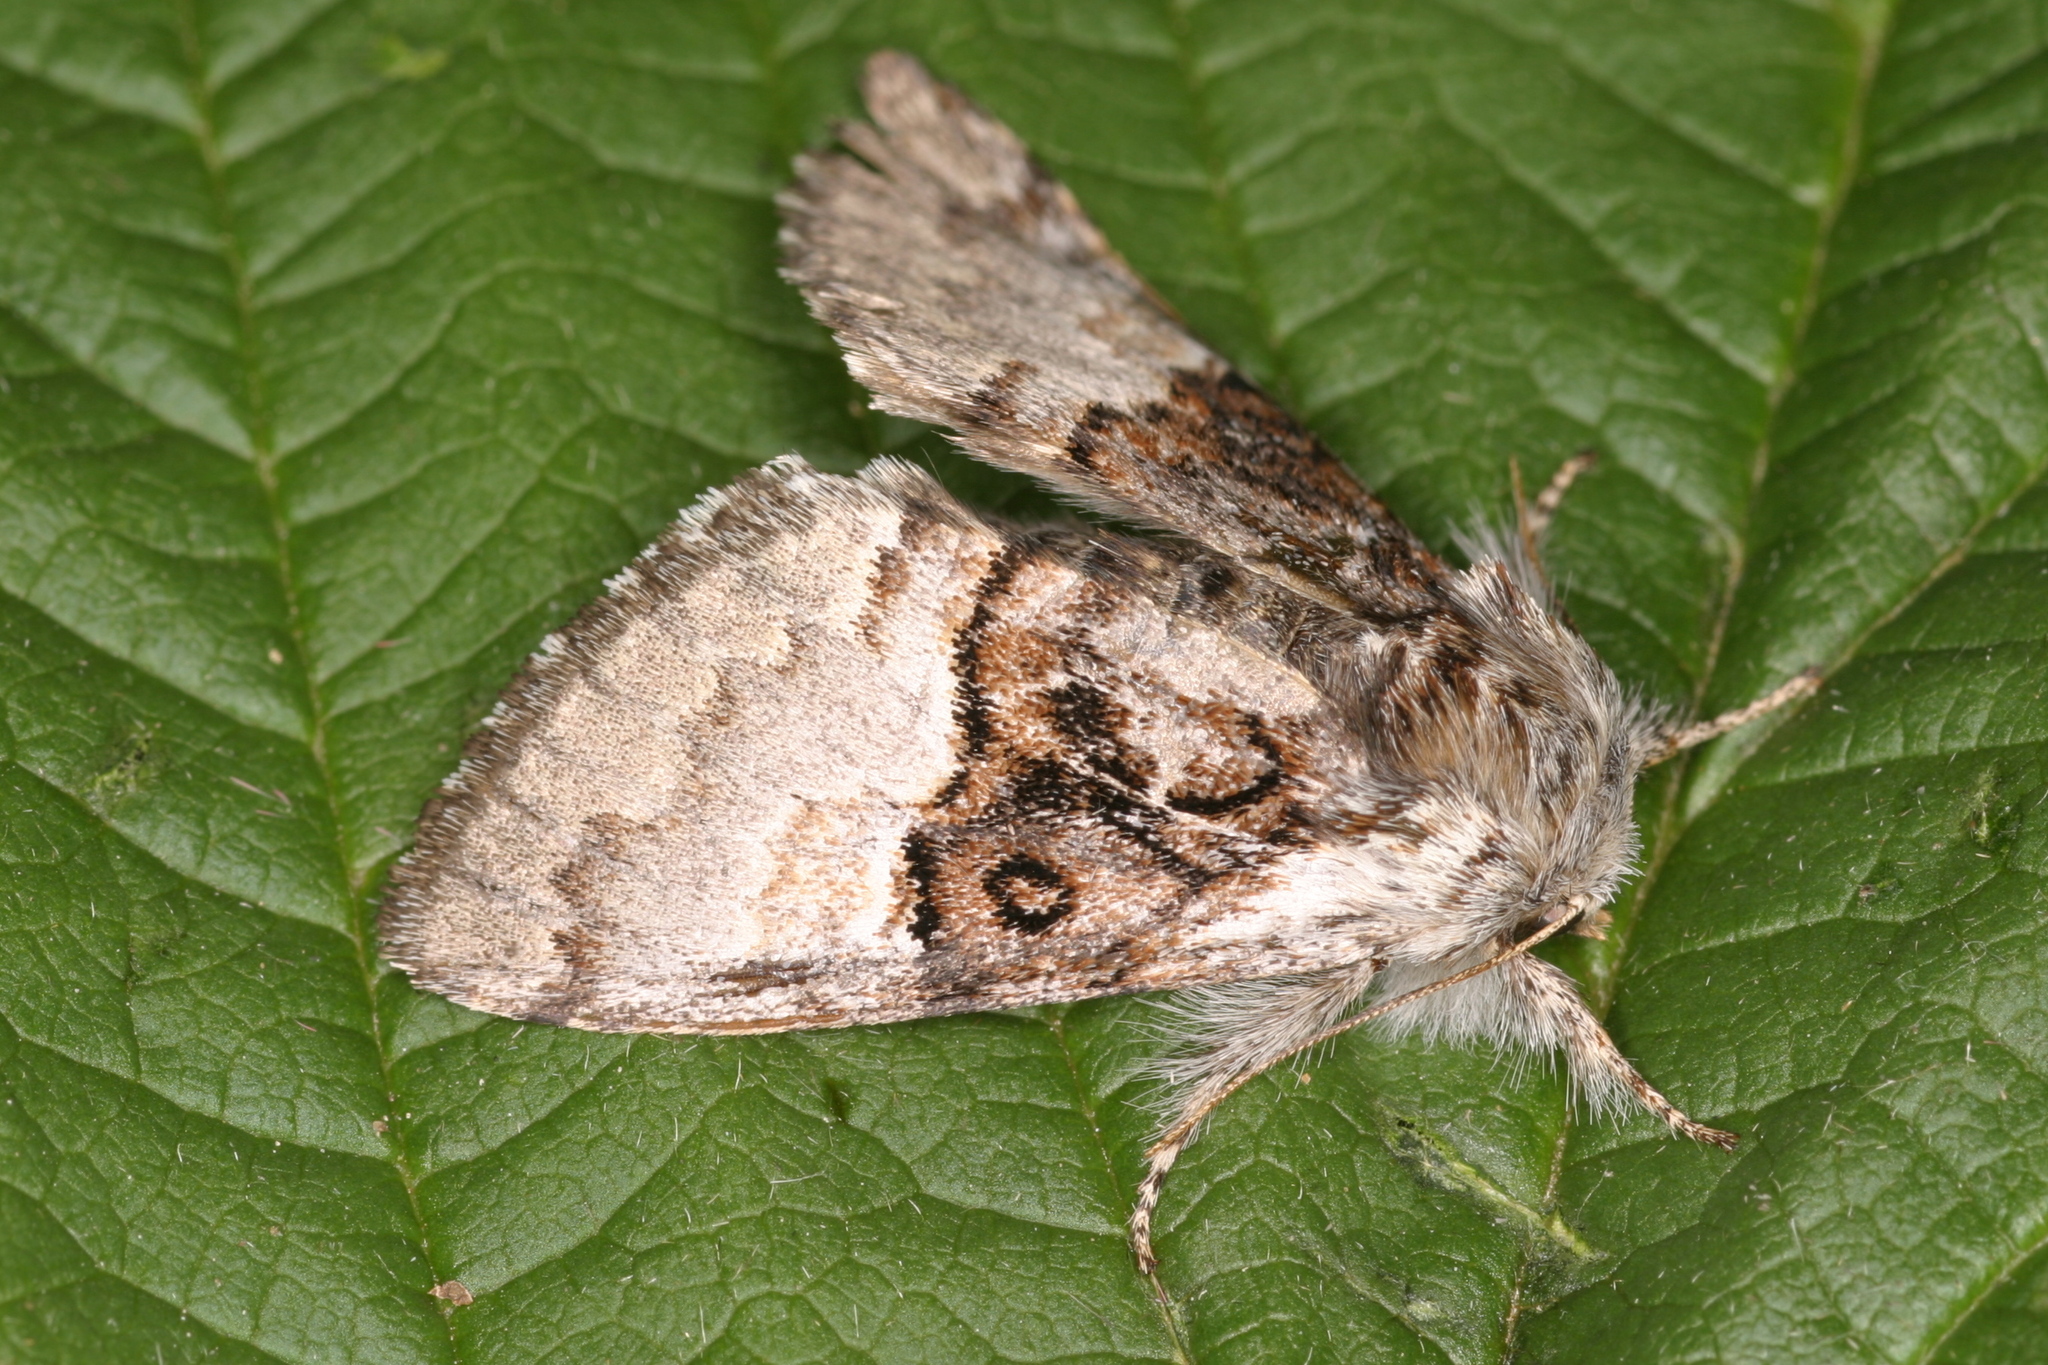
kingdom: Animalia
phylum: Arthropoda
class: Insecta
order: Lepidoptera
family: Noctuidae
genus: Colocasia
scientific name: Colocasia coryli
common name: Nut-tree tussock
